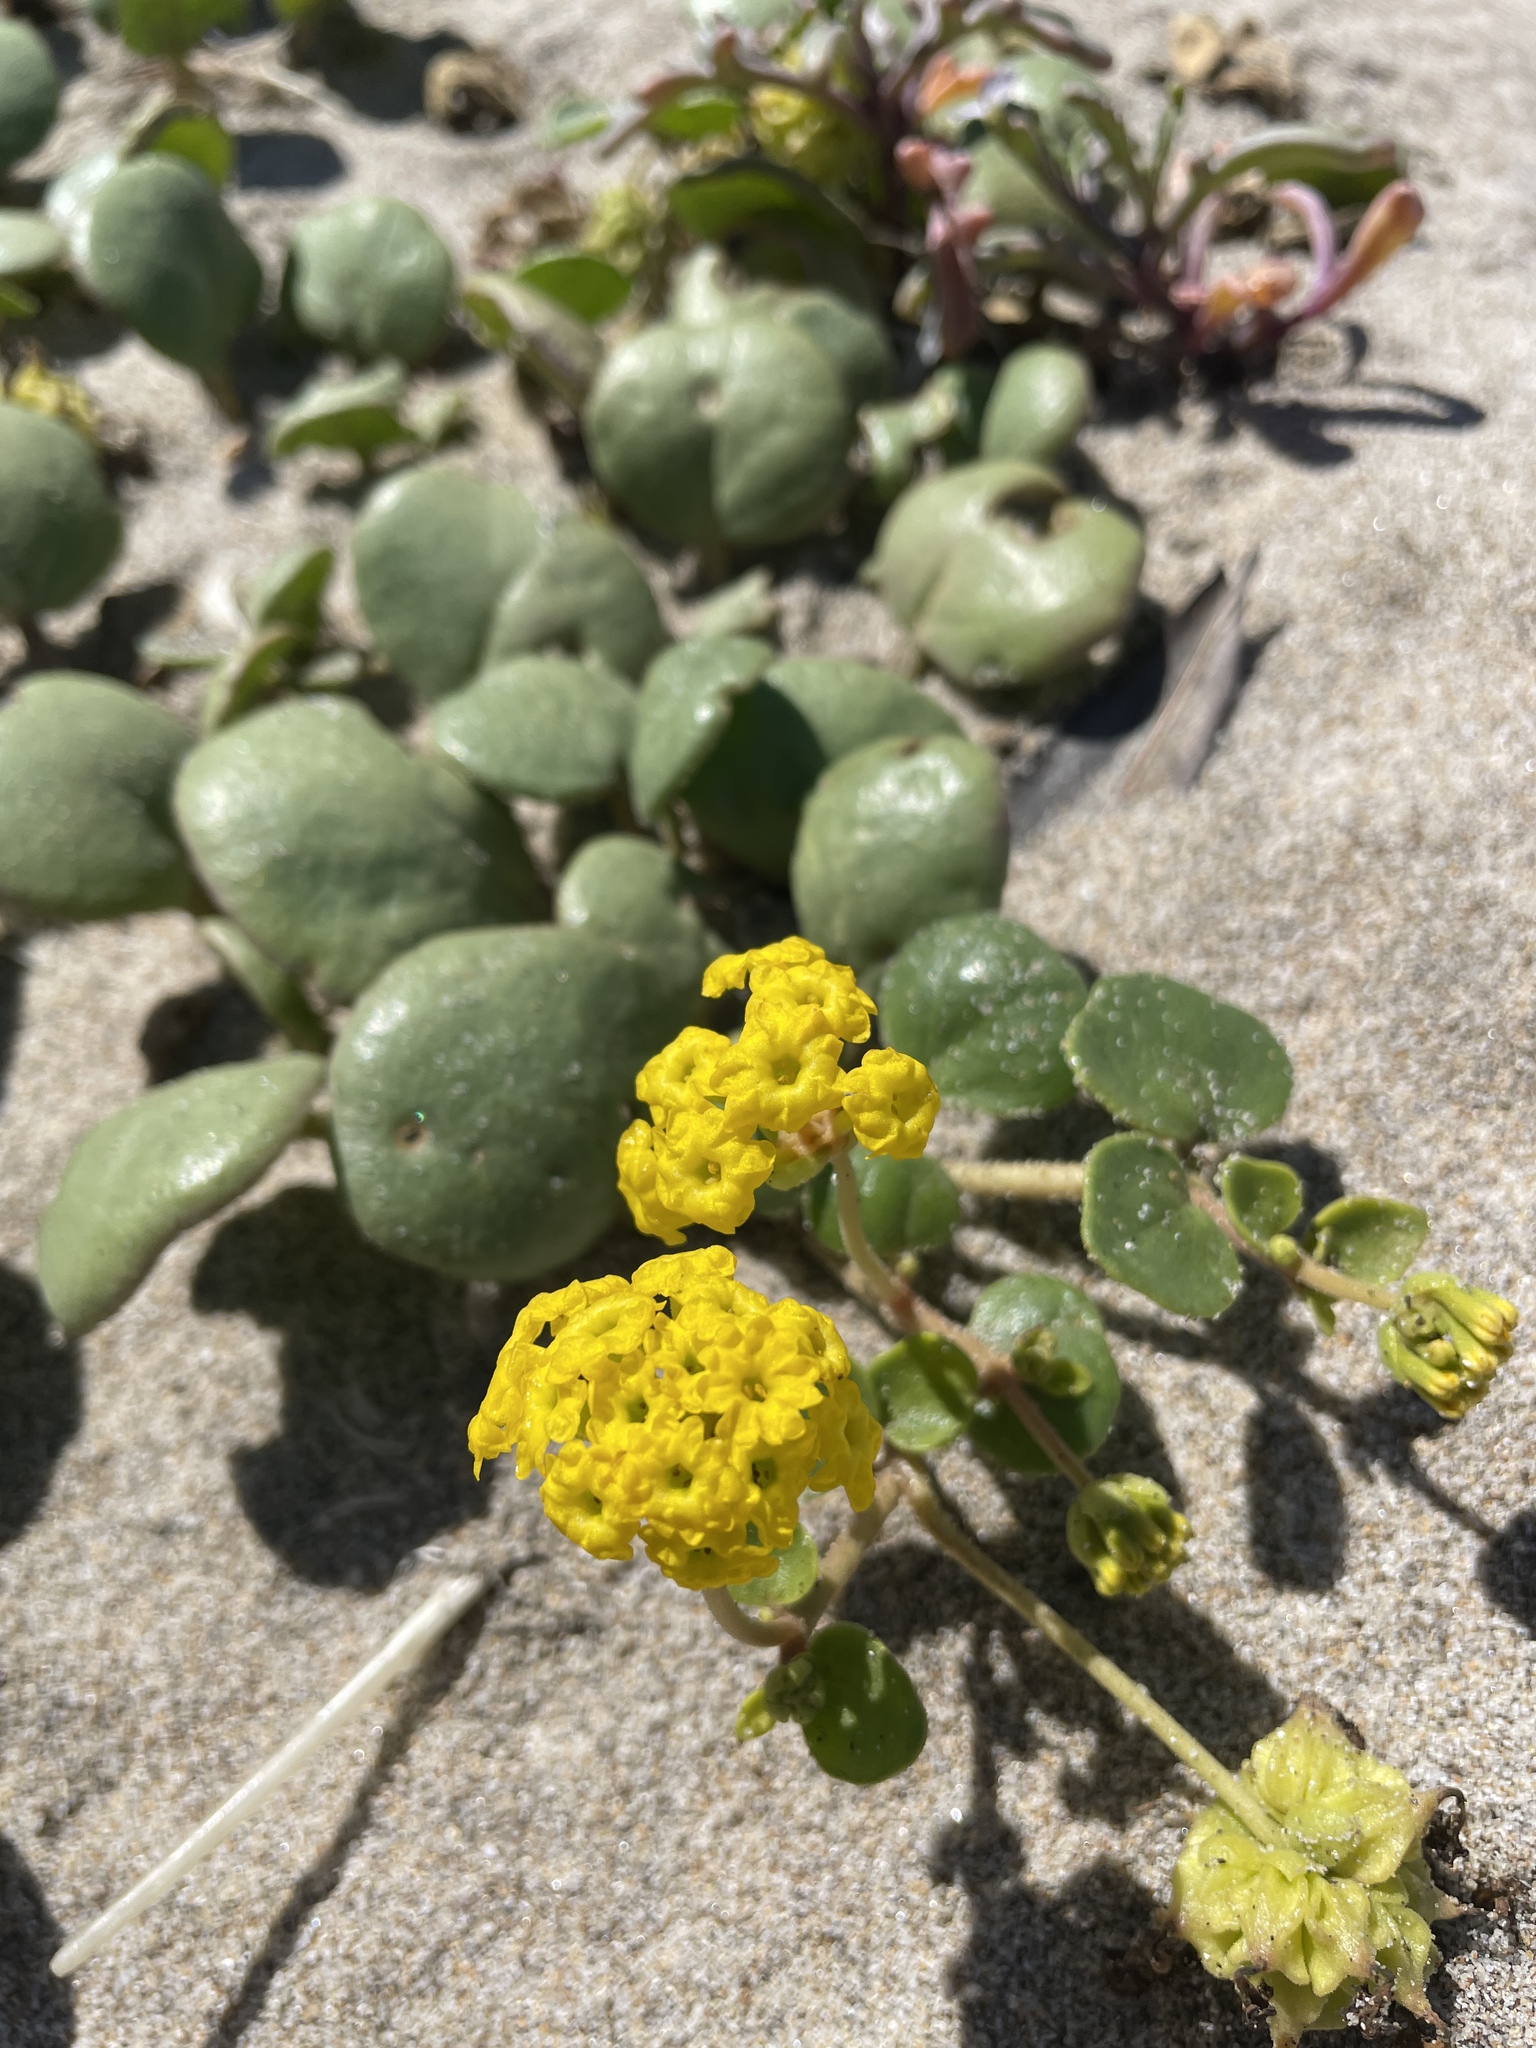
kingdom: Plantae
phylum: Tracheophyta
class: Magnoliopsida
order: Caryophyllales
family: Nyctaginaceae
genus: Abronia
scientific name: Abronia latifolia
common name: Yellow sand-verbena
